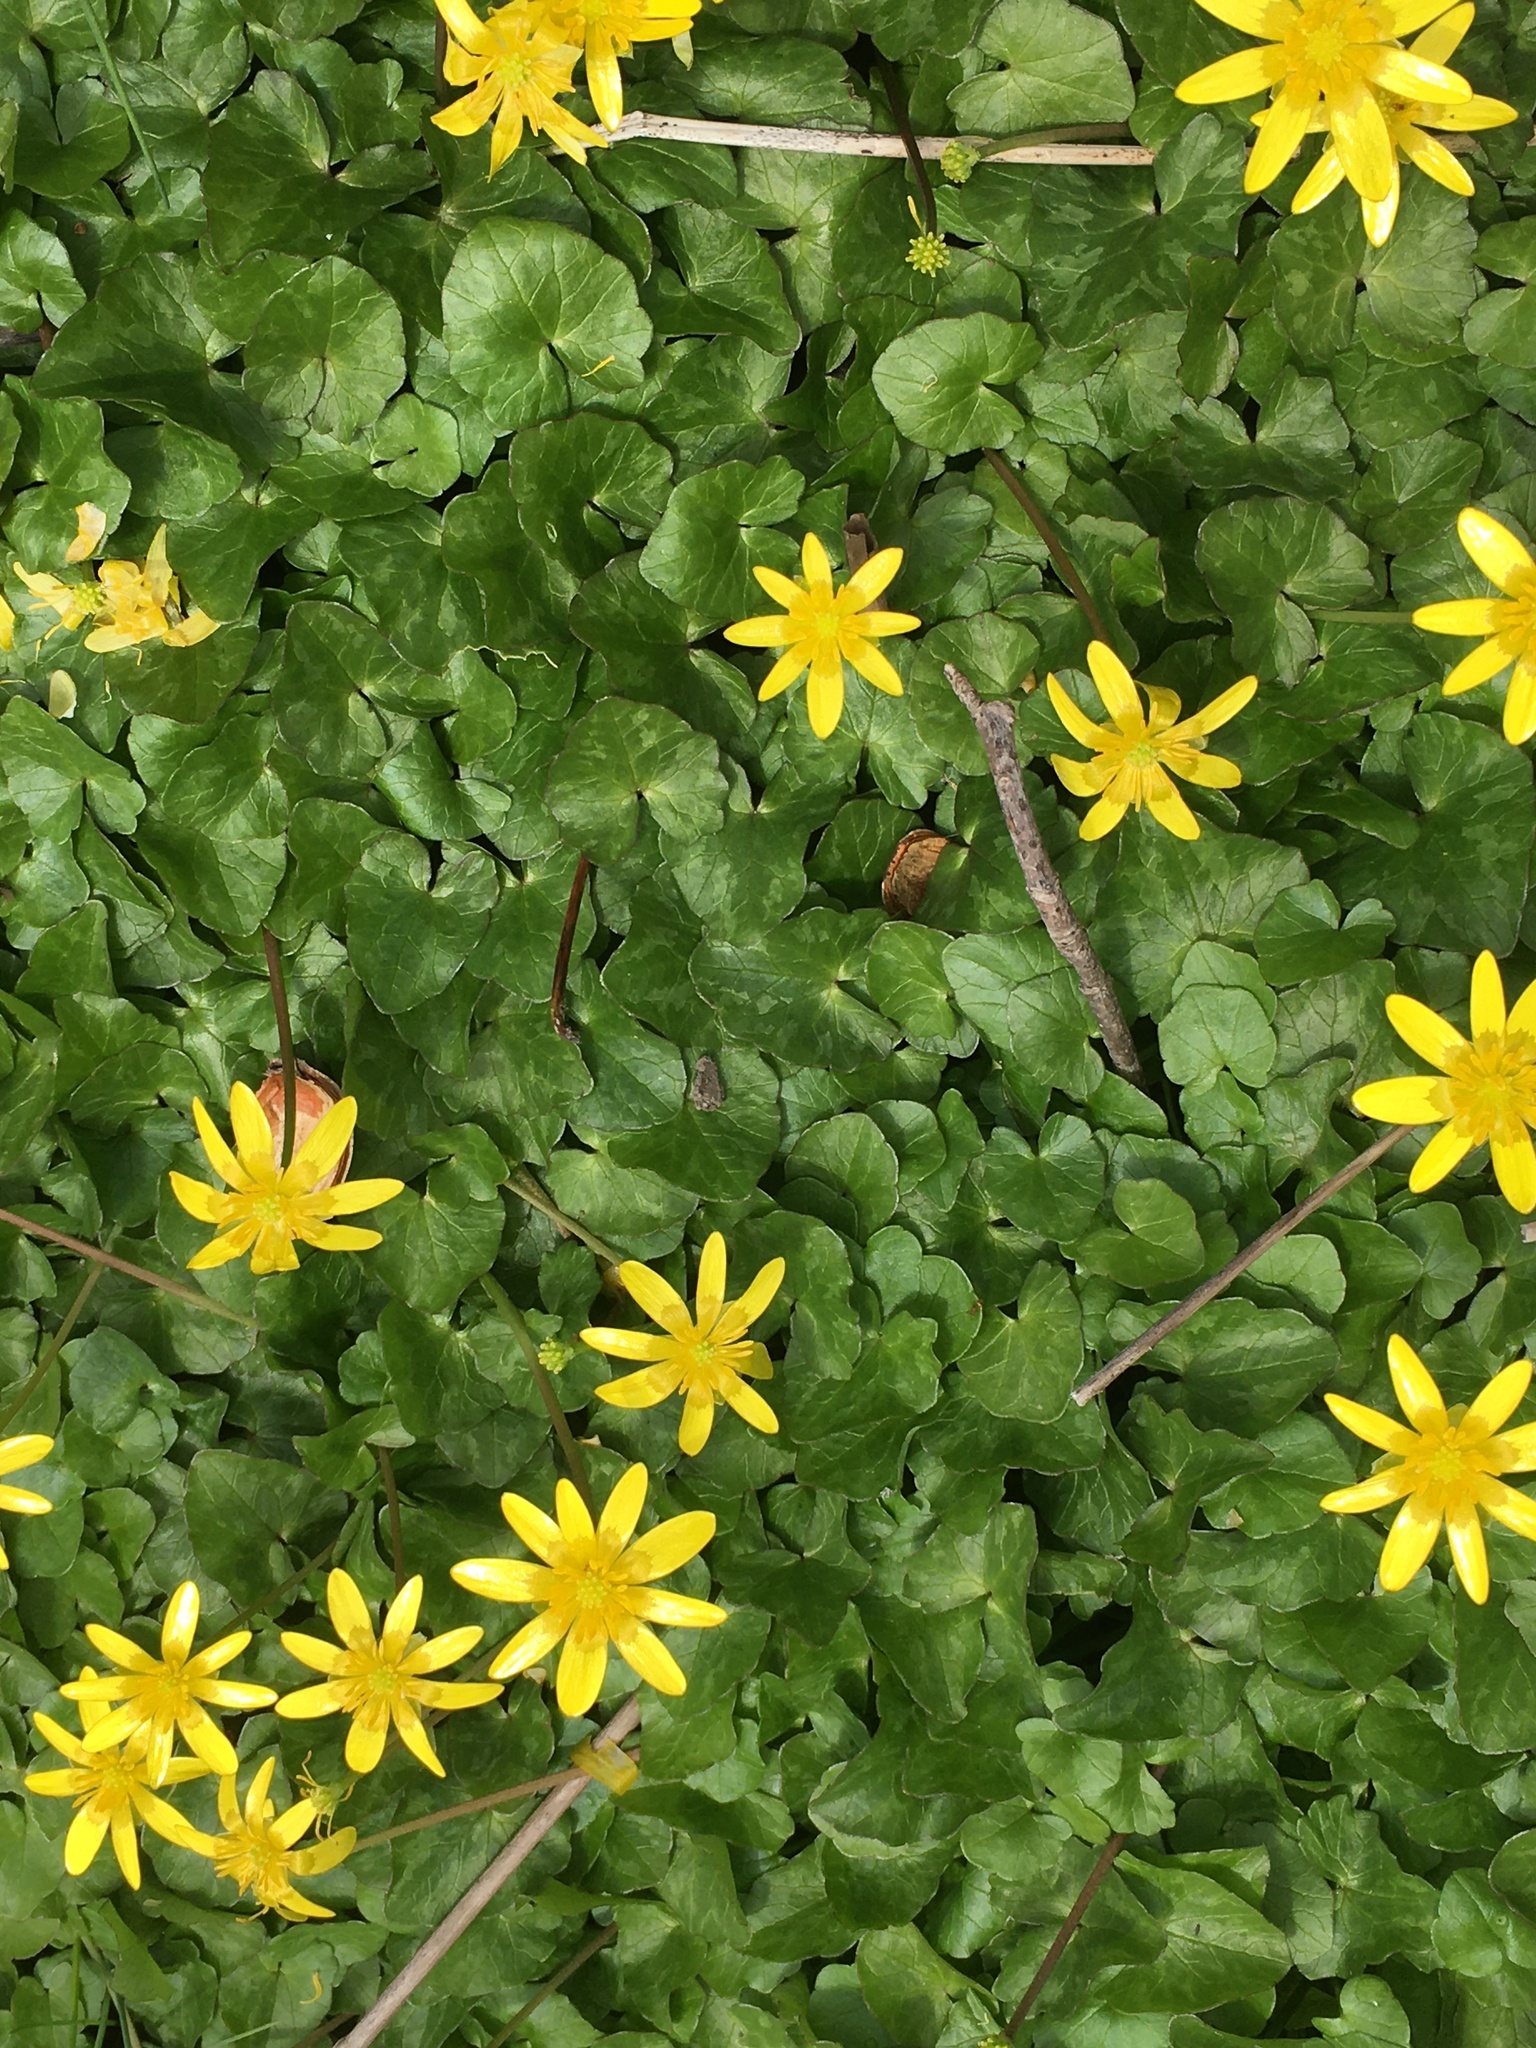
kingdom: Plantae
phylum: Tracheophyta
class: Magnoliopsida
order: Ranunculales
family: Ranunculaceae
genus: Ficaria
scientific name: Ficaria verna
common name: Lesser celandine
